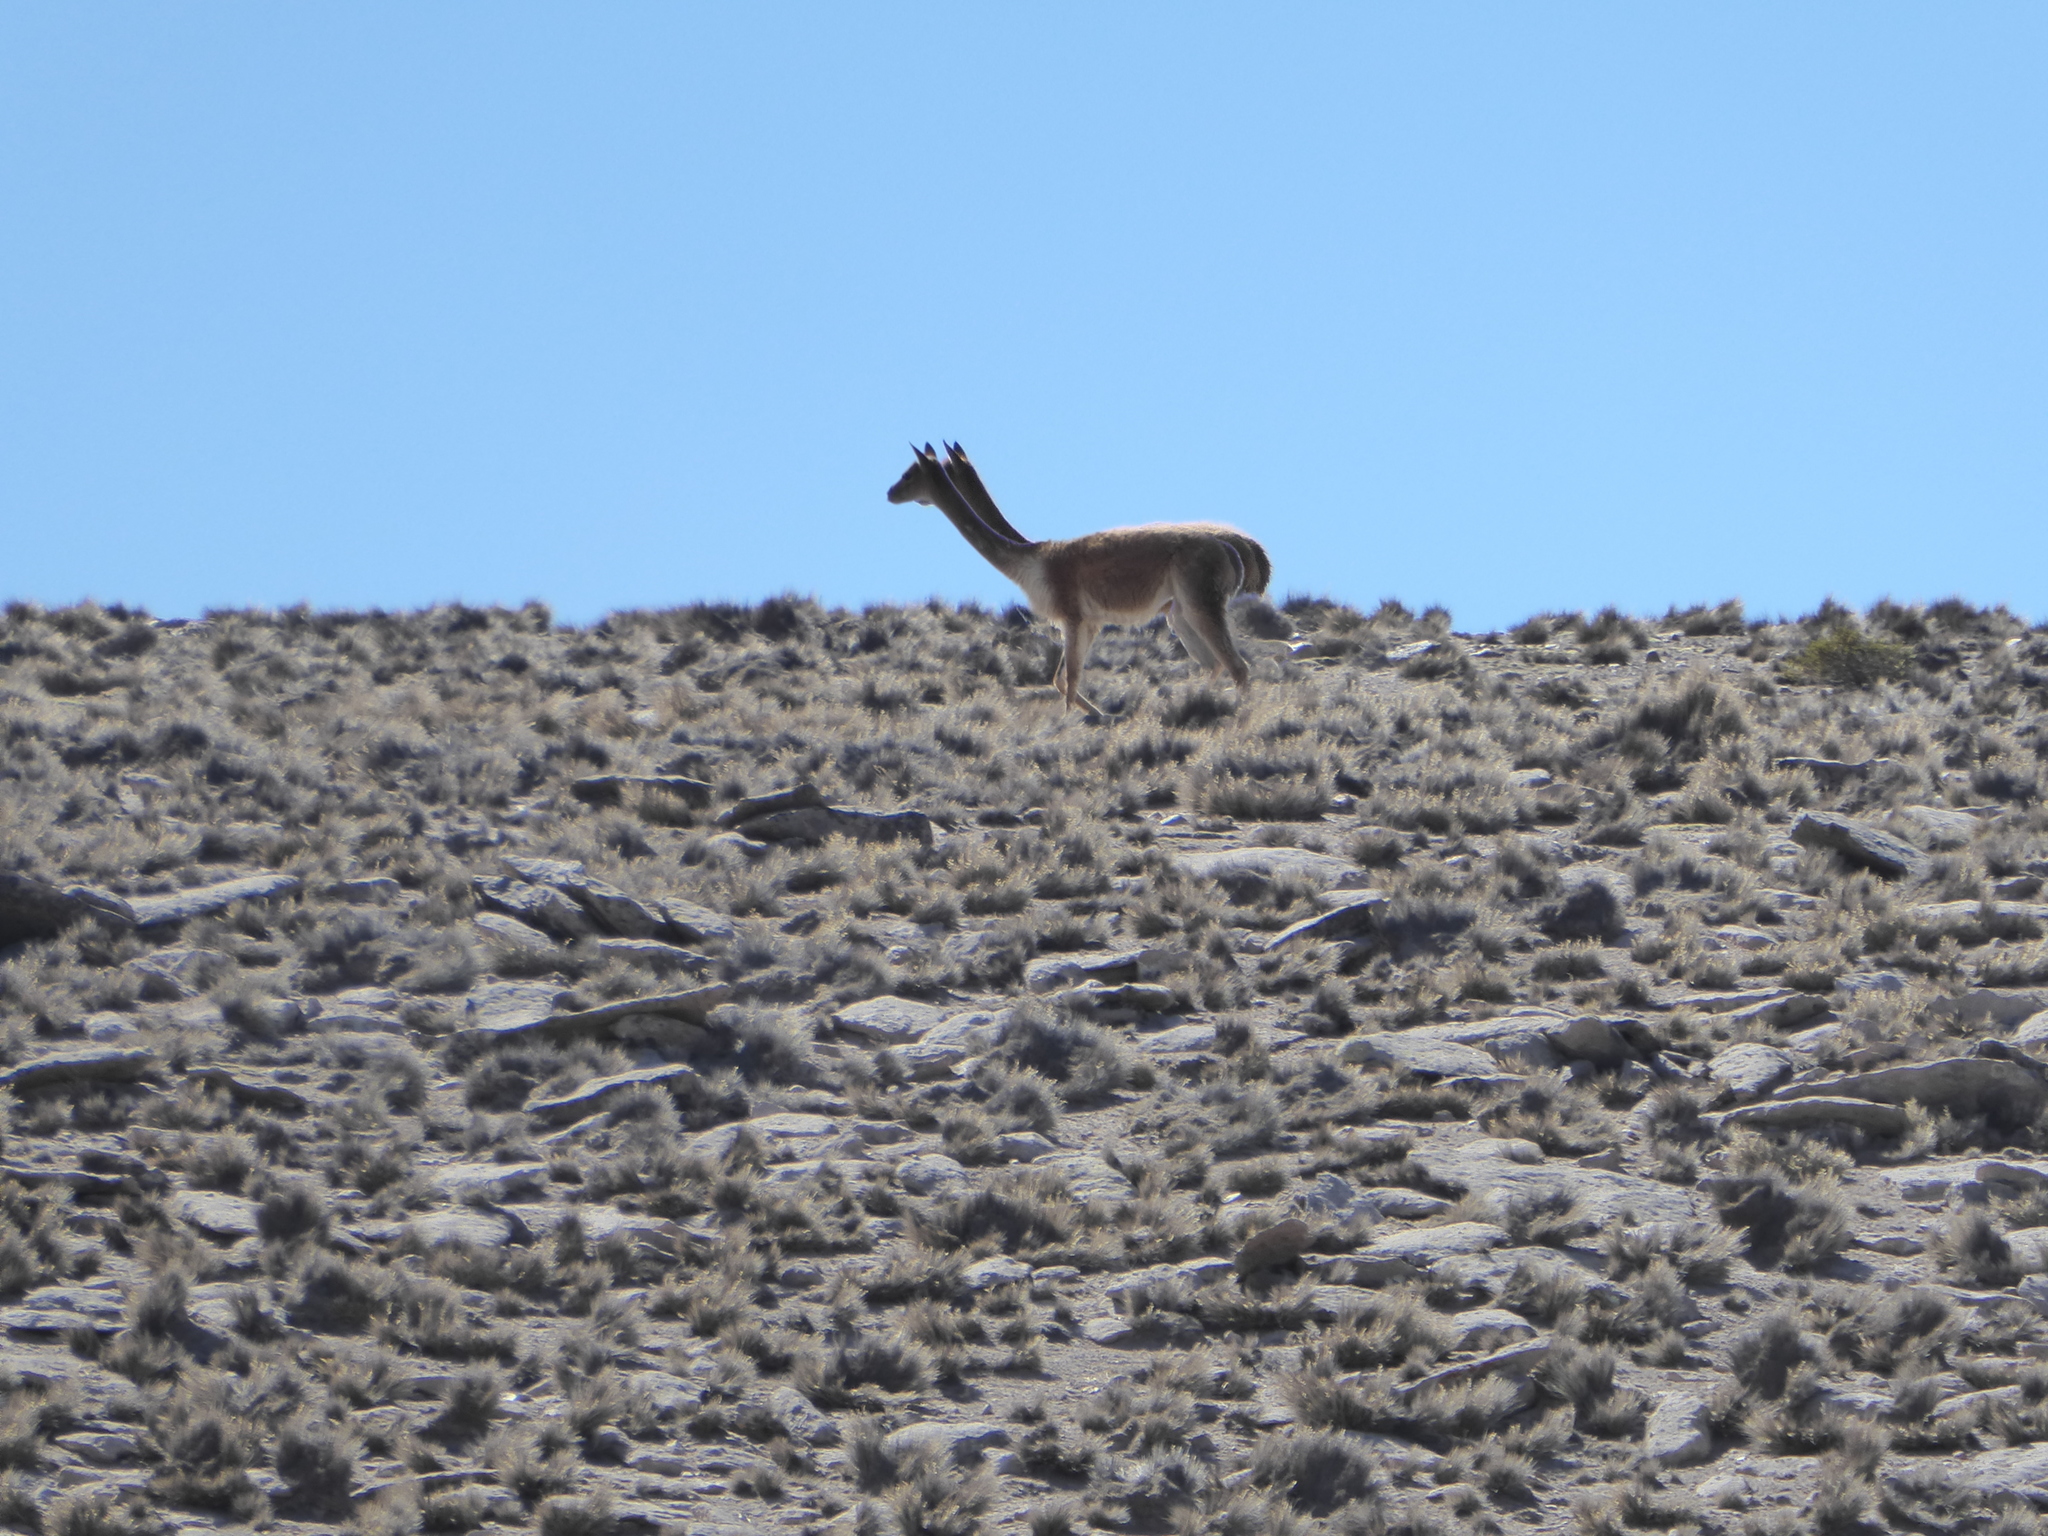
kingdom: Animalia
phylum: Chordata
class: Mammalia
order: Artiodactyla
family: Camelidae
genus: Vicugna
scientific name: Vicugna vicugna
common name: Vicugna
